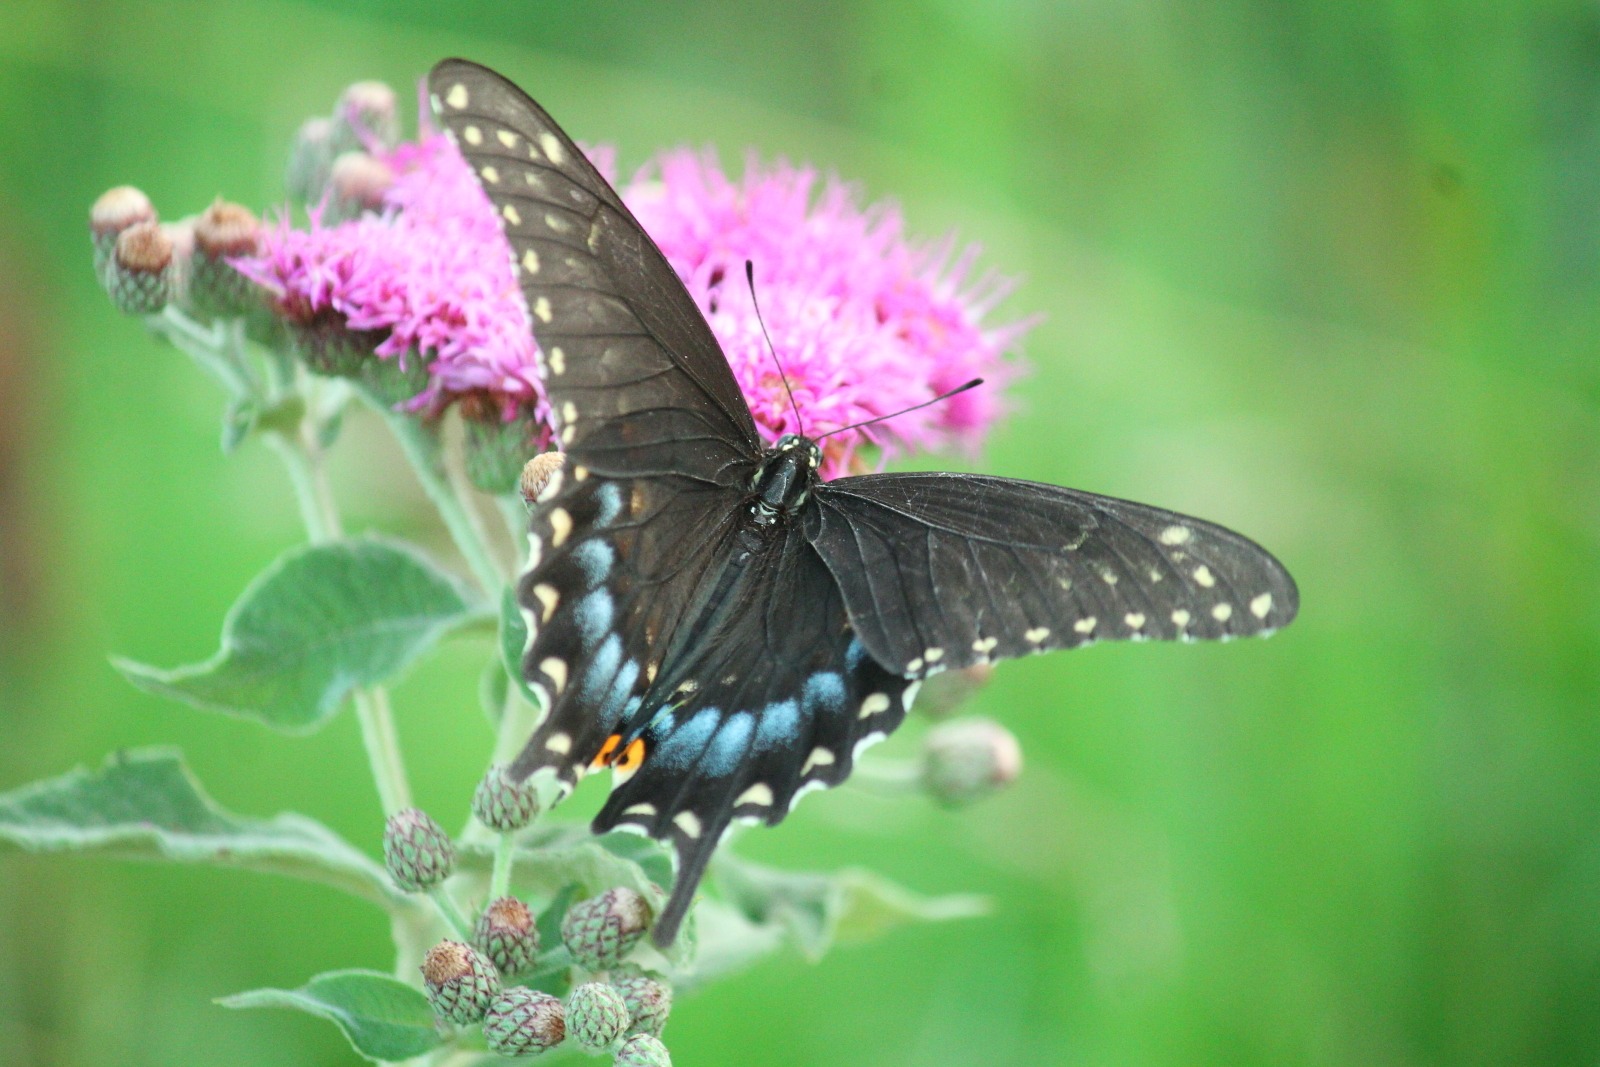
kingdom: Animalia
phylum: Arthropoda
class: Insecta
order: Lepidoptera
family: Papilionidae
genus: Papilio
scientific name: Papilio polyxenes
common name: Black swallowtail
